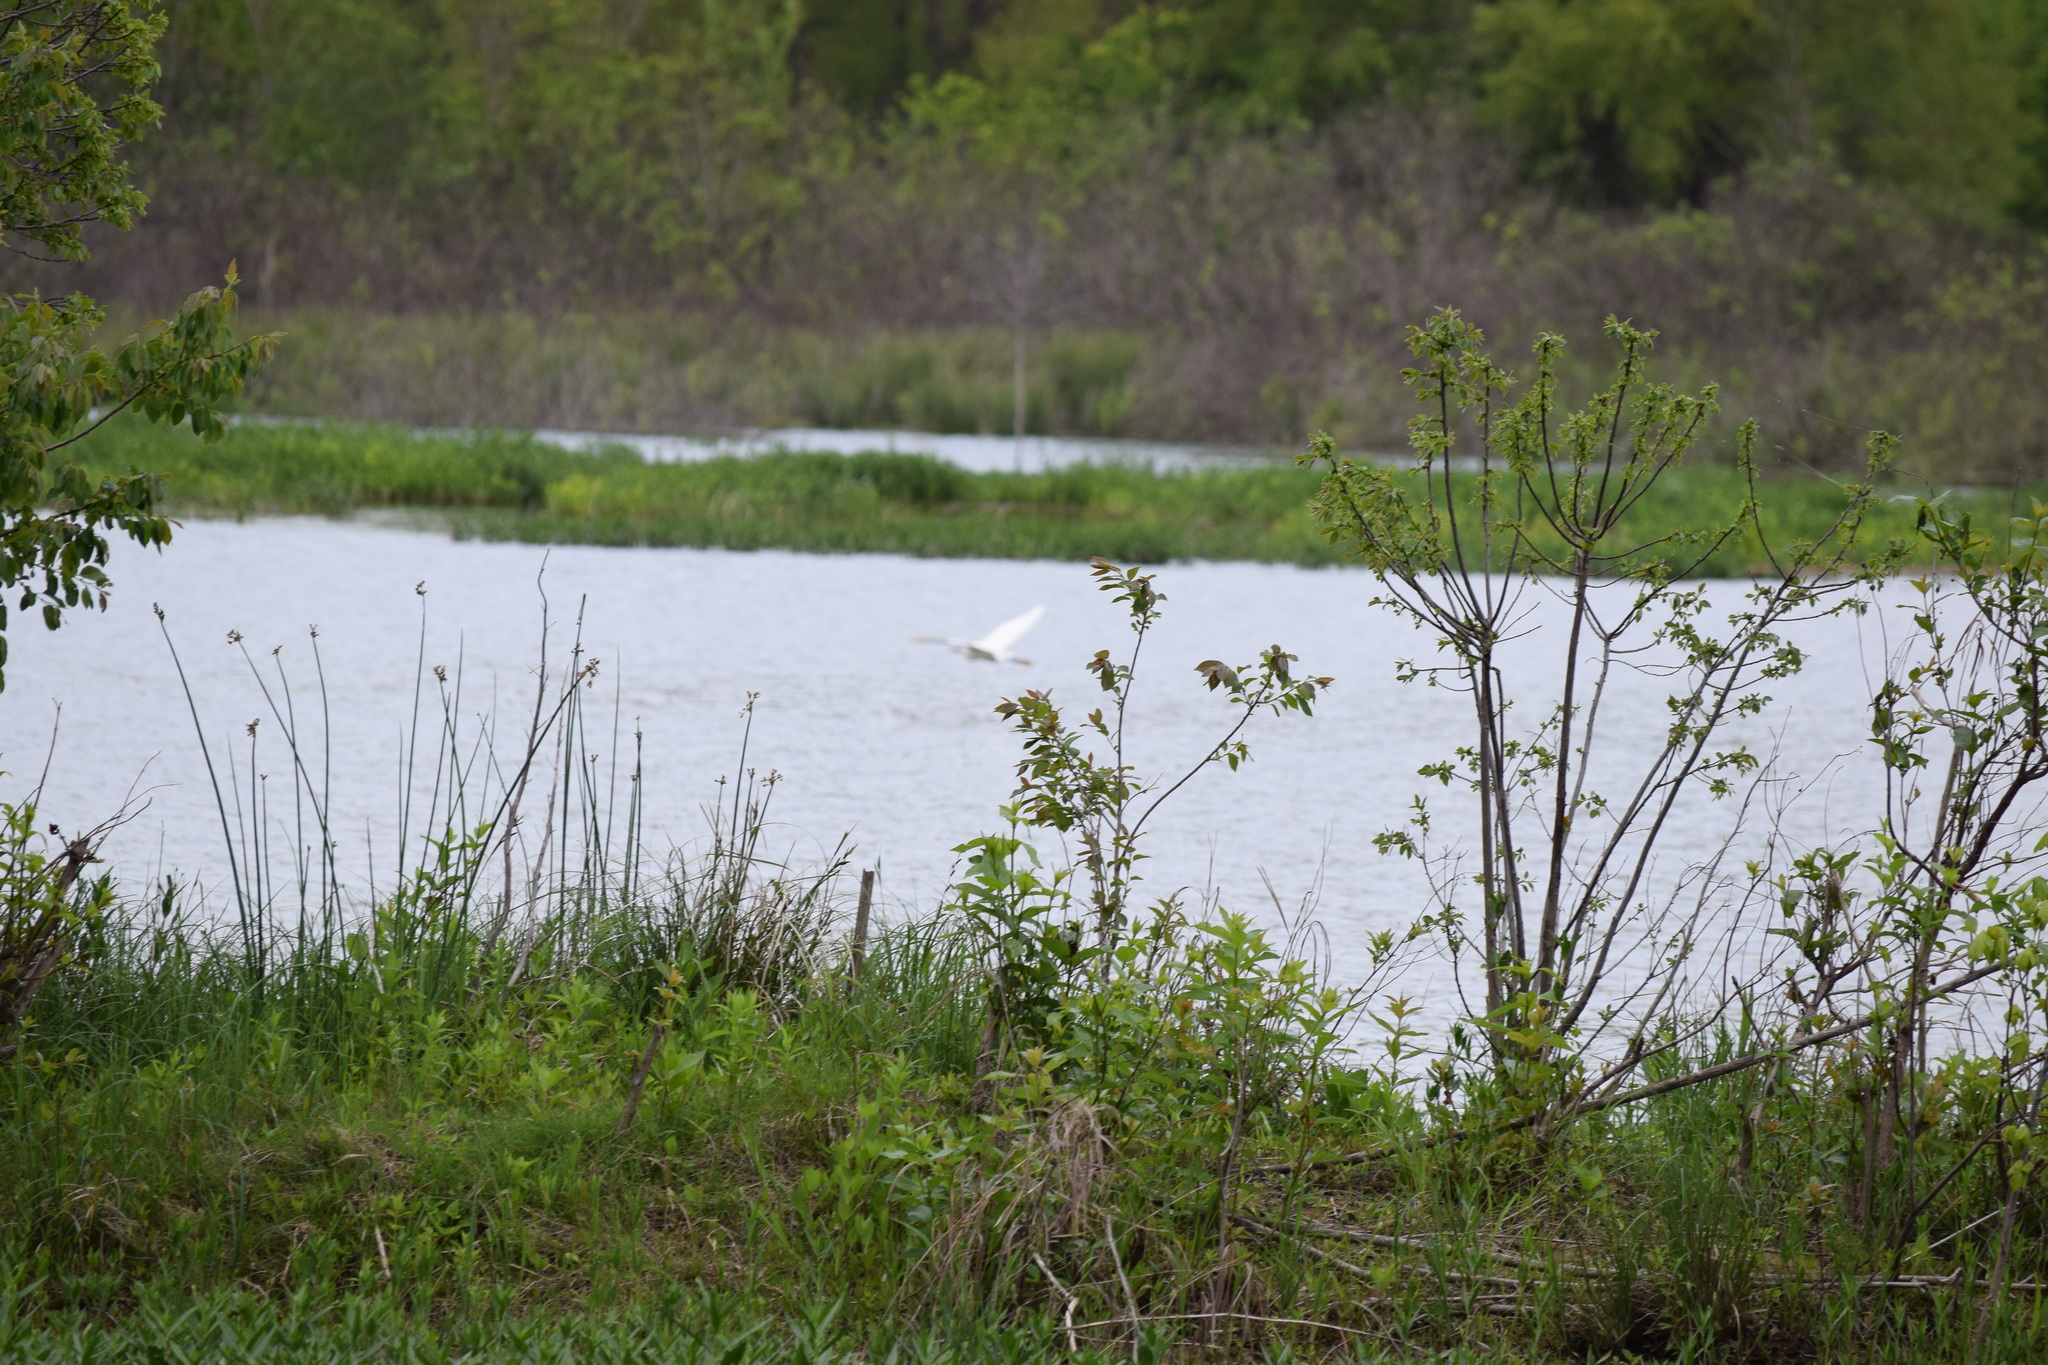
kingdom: Animalia
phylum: Chordata
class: Aves
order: Pelecaniformes
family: Ardeidae
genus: Egretta
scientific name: Egretta thula
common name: Snowy egret
